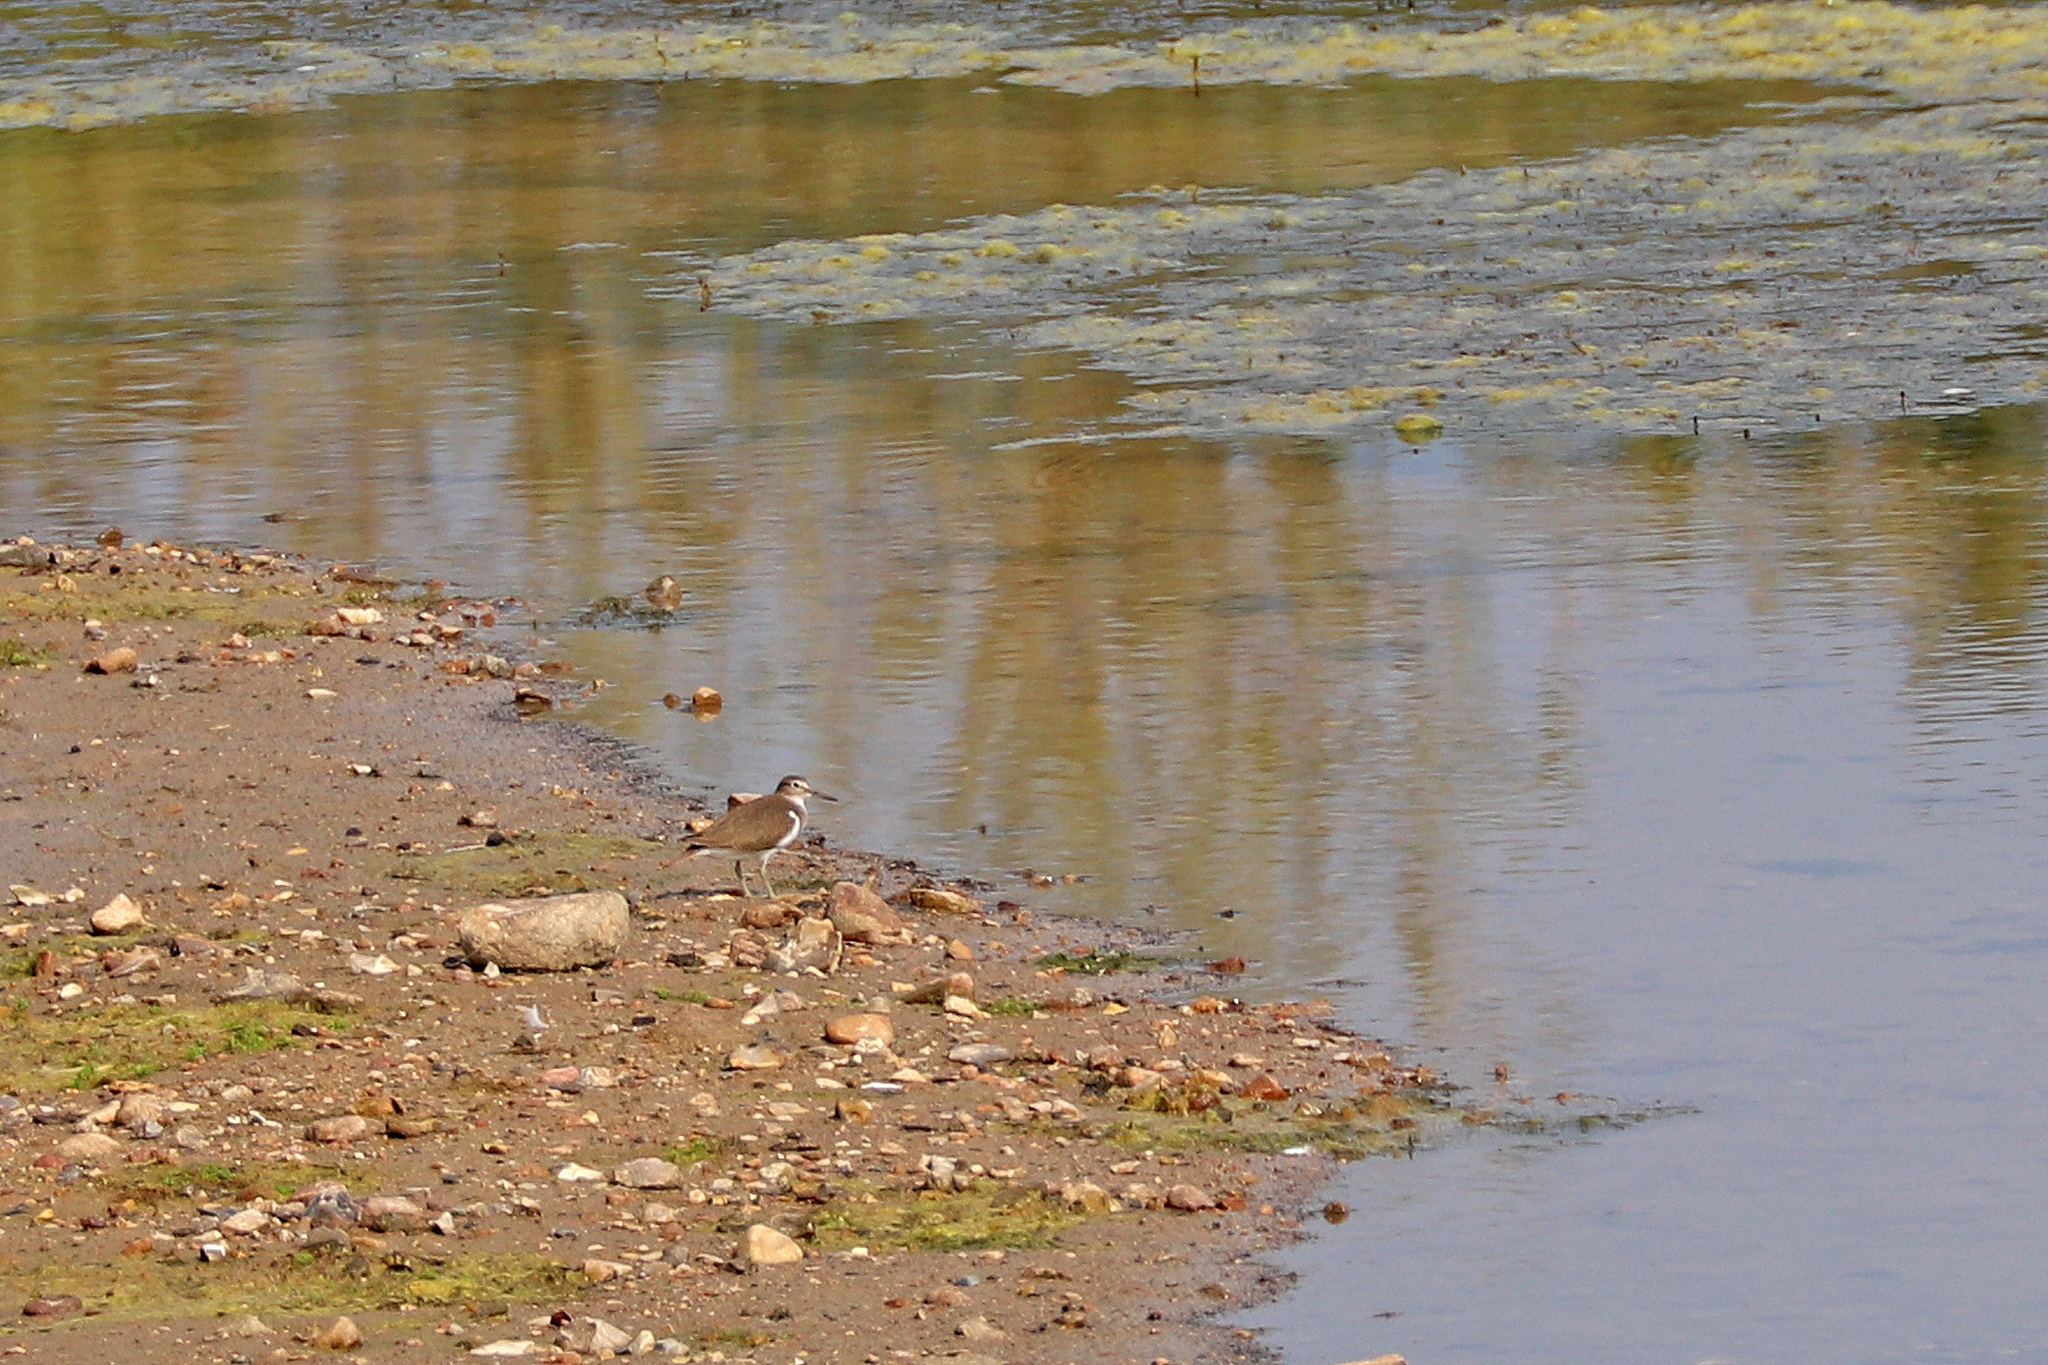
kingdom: Animalia
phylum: Chordata
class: Aves
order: Charadriiformes
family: Scolopacidae
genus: Actitis
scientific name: Actitis hypoleucos
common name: Common sandpiper
